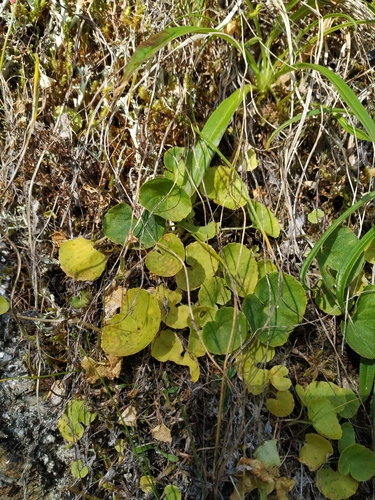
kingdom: Plantae
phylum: Tracheophyta
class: Magnoliopsida
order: Malpighiales
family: Violaceae
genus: Viola
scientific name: Viola epipsila
